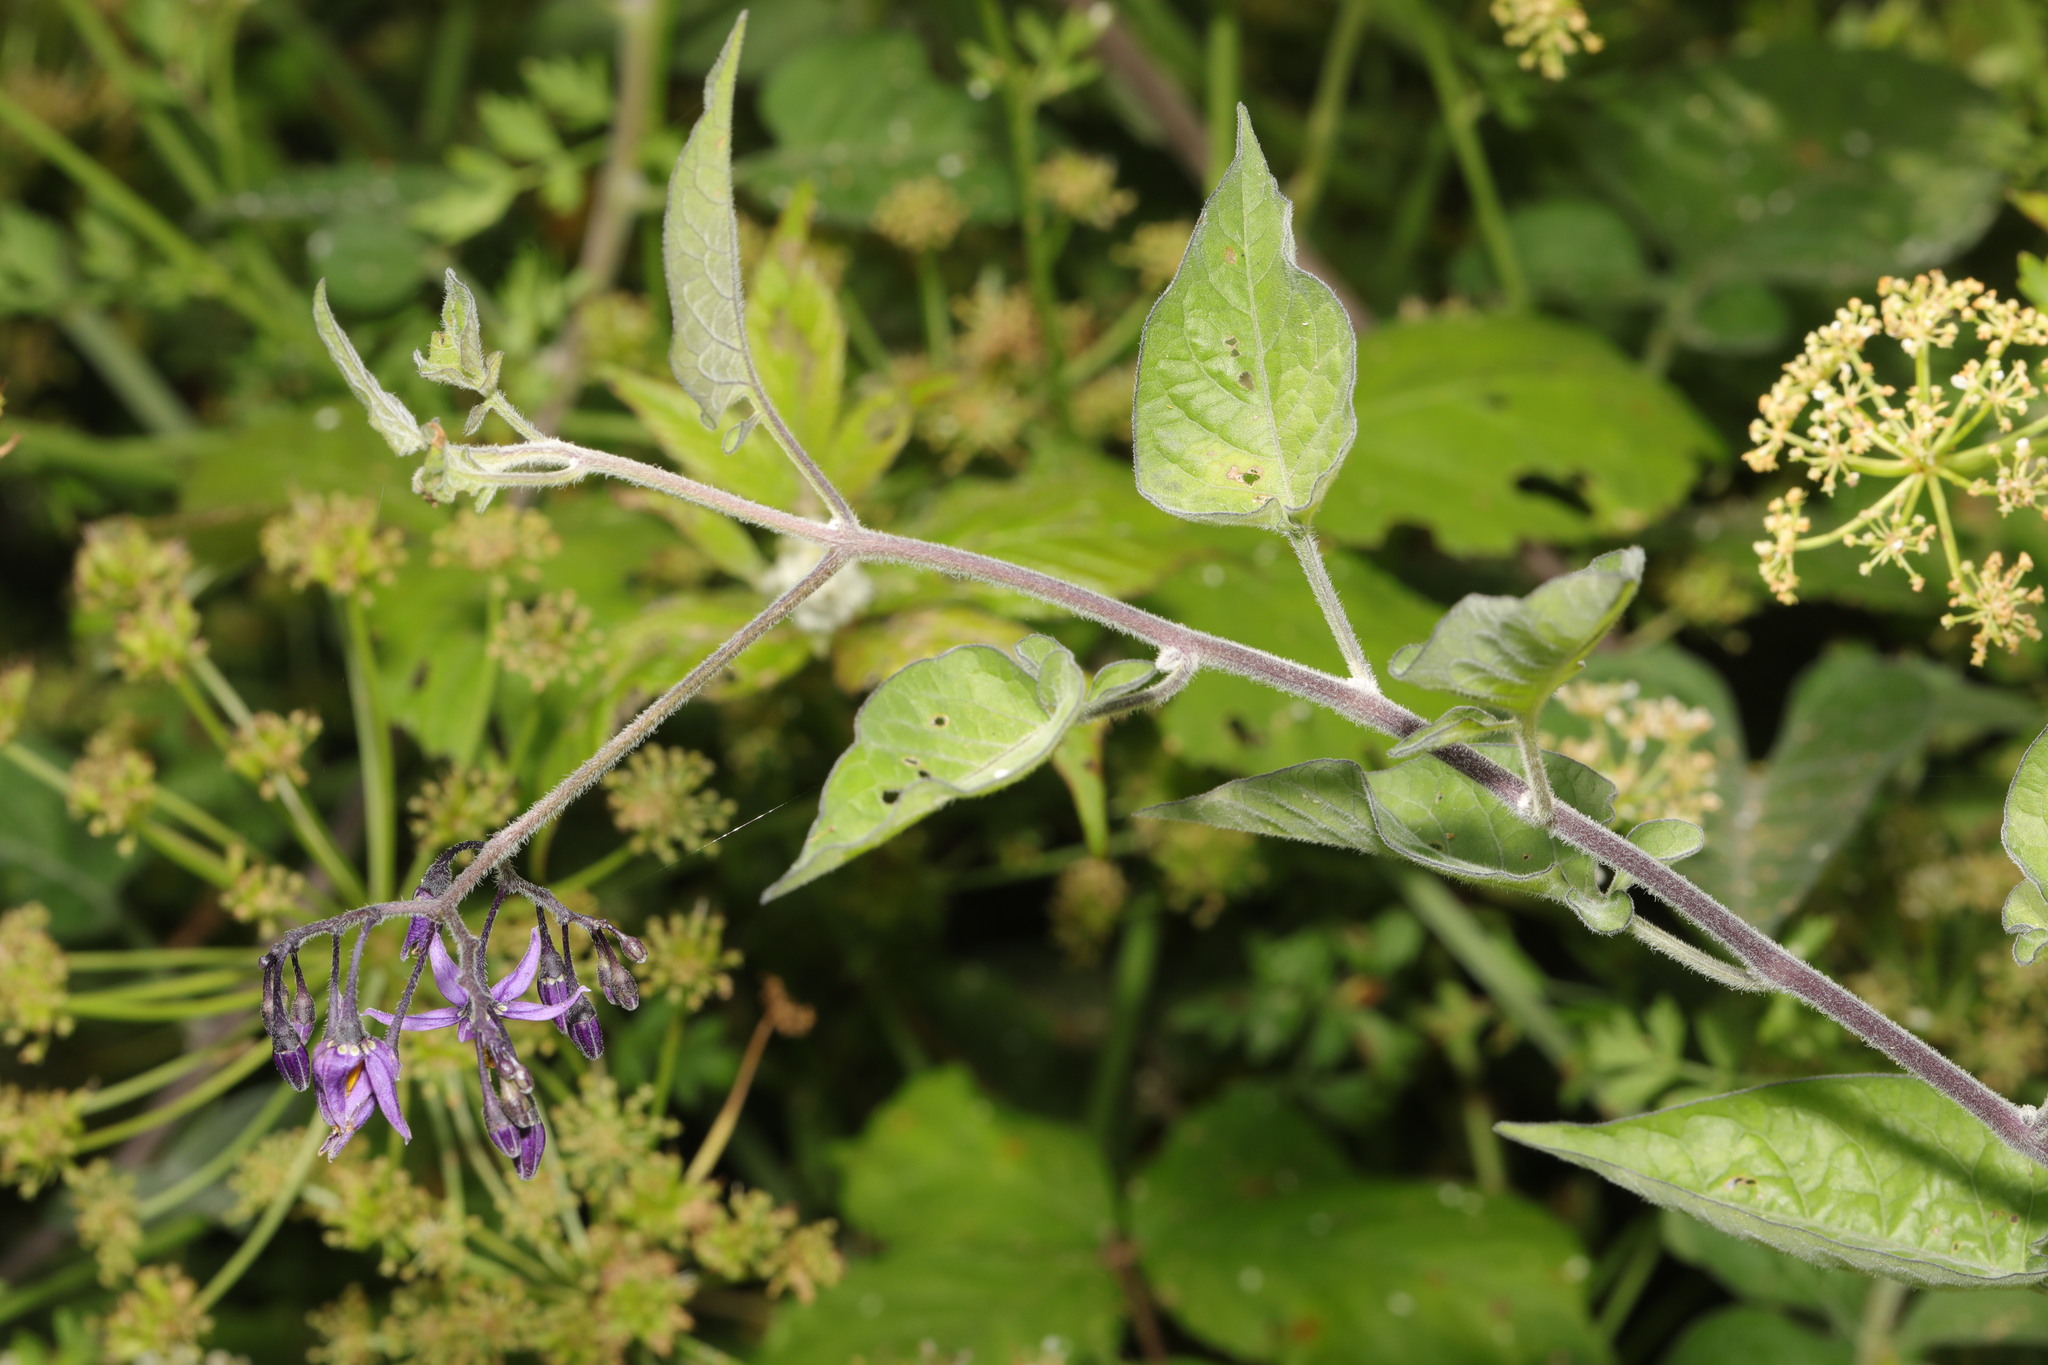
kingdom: Plantae
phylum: Tracheophyta
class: Magnoliopsida
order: Solanales
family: Solanaceae
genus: Solanum
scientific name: Solanum dulcamara
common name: Climbing nightshade
